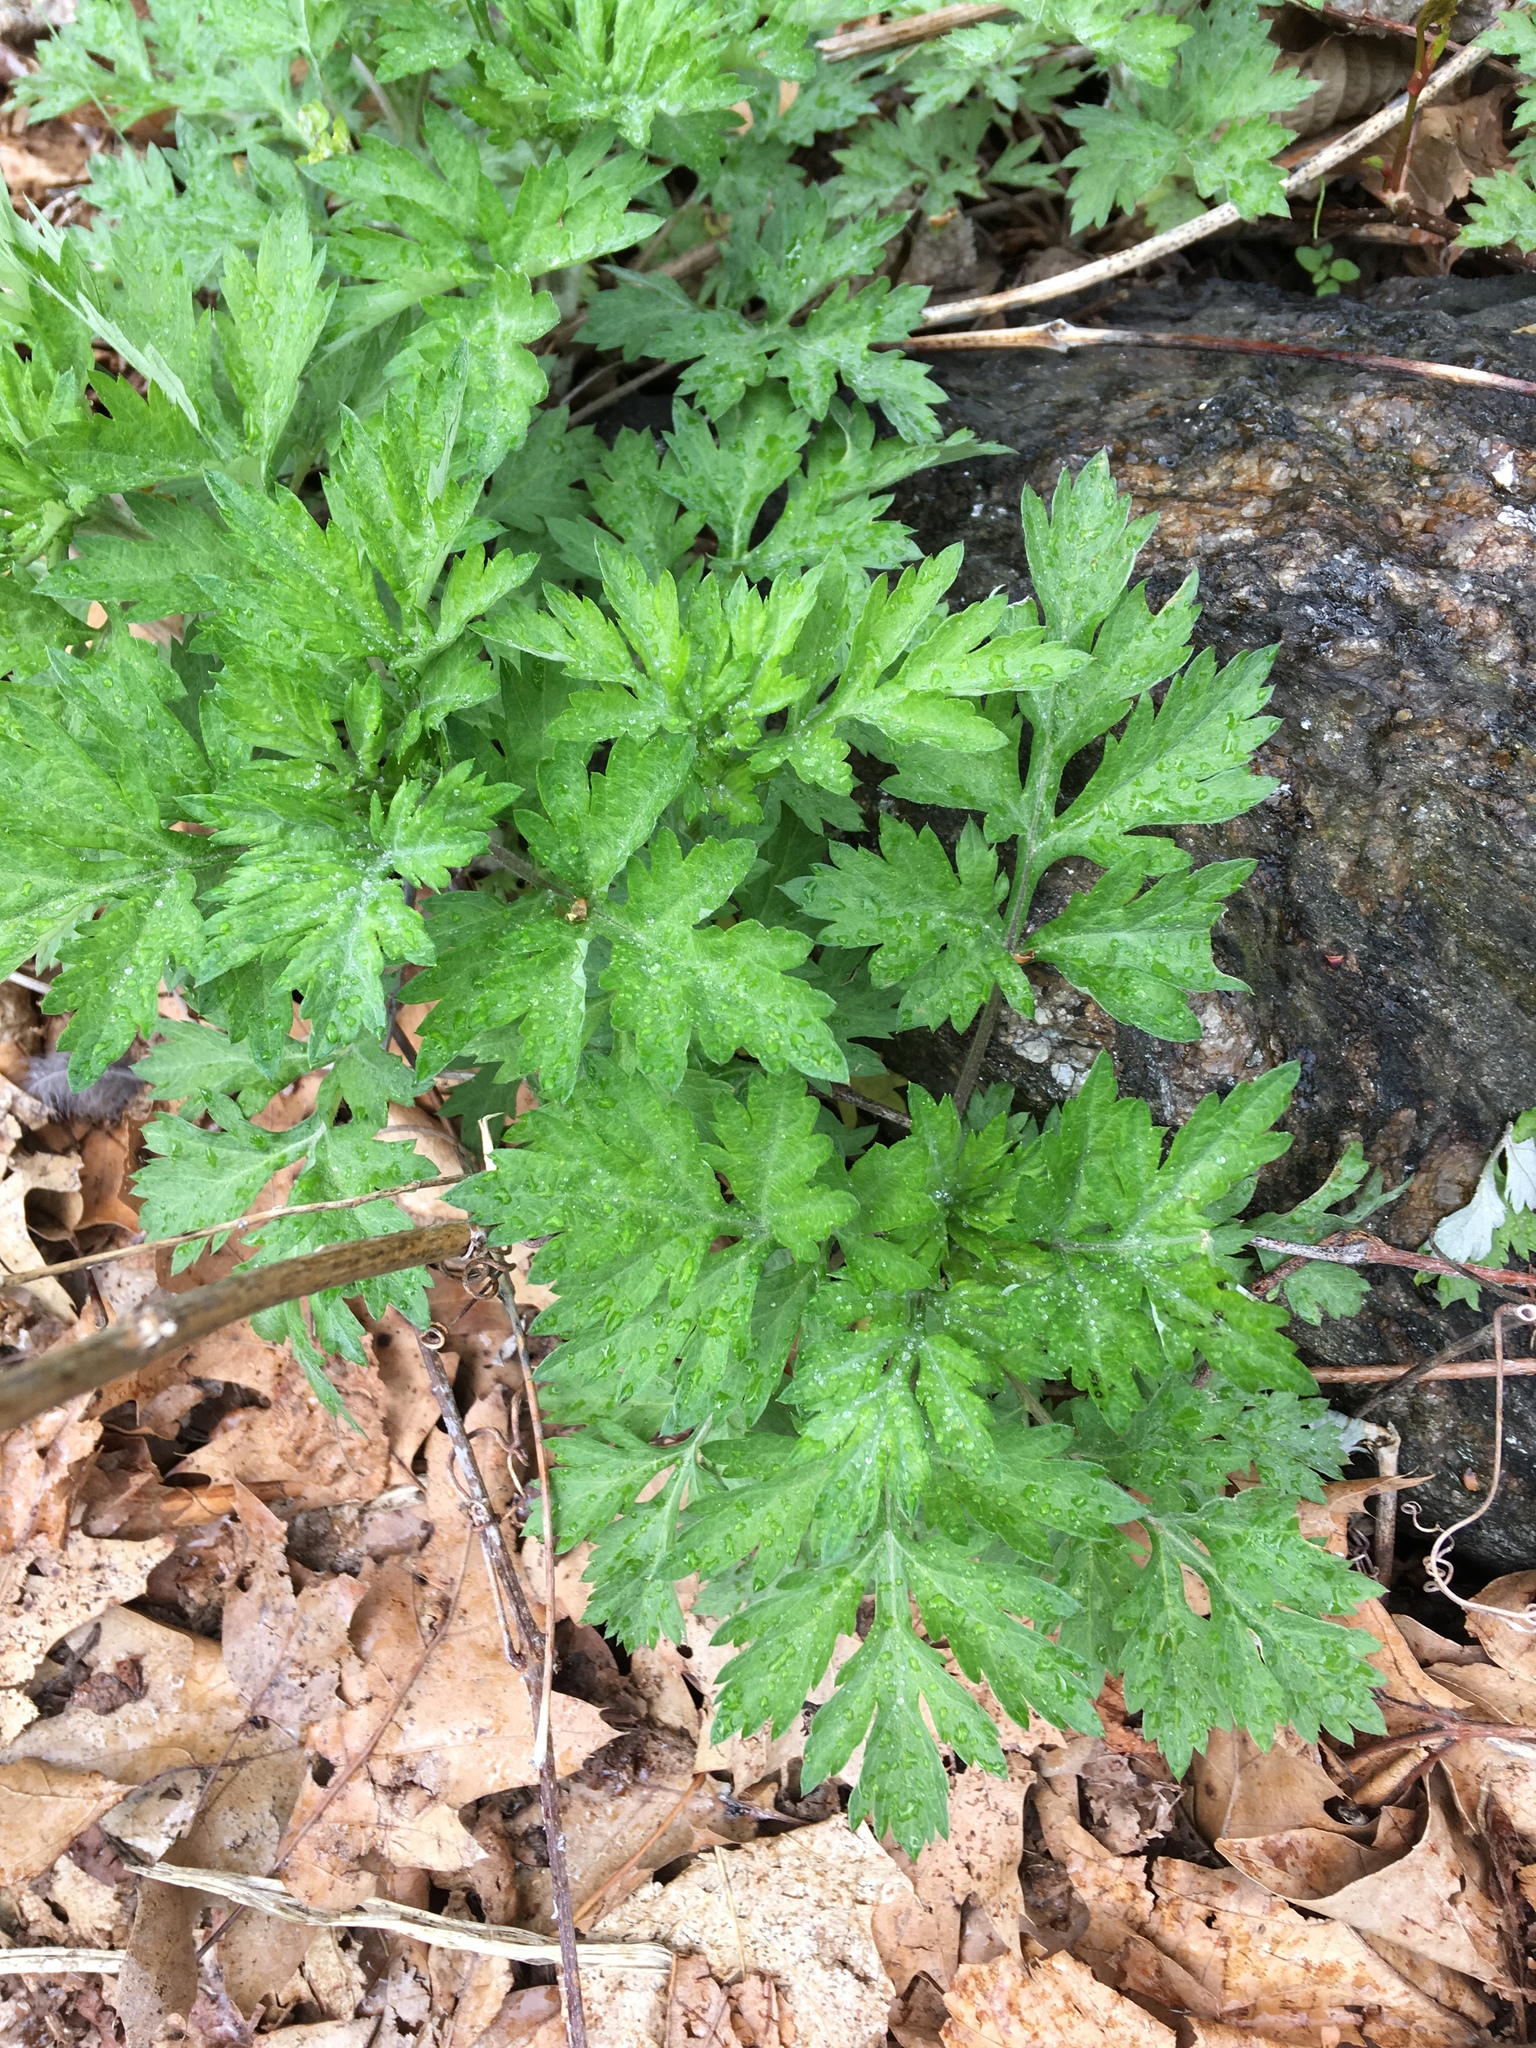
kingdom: Plantae
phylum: Tracheophyta
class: Magnoliopsida
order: Asterales
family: Asteraceae
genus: Artemisia
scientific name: Artemisia vulgaris
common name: Mugwort
